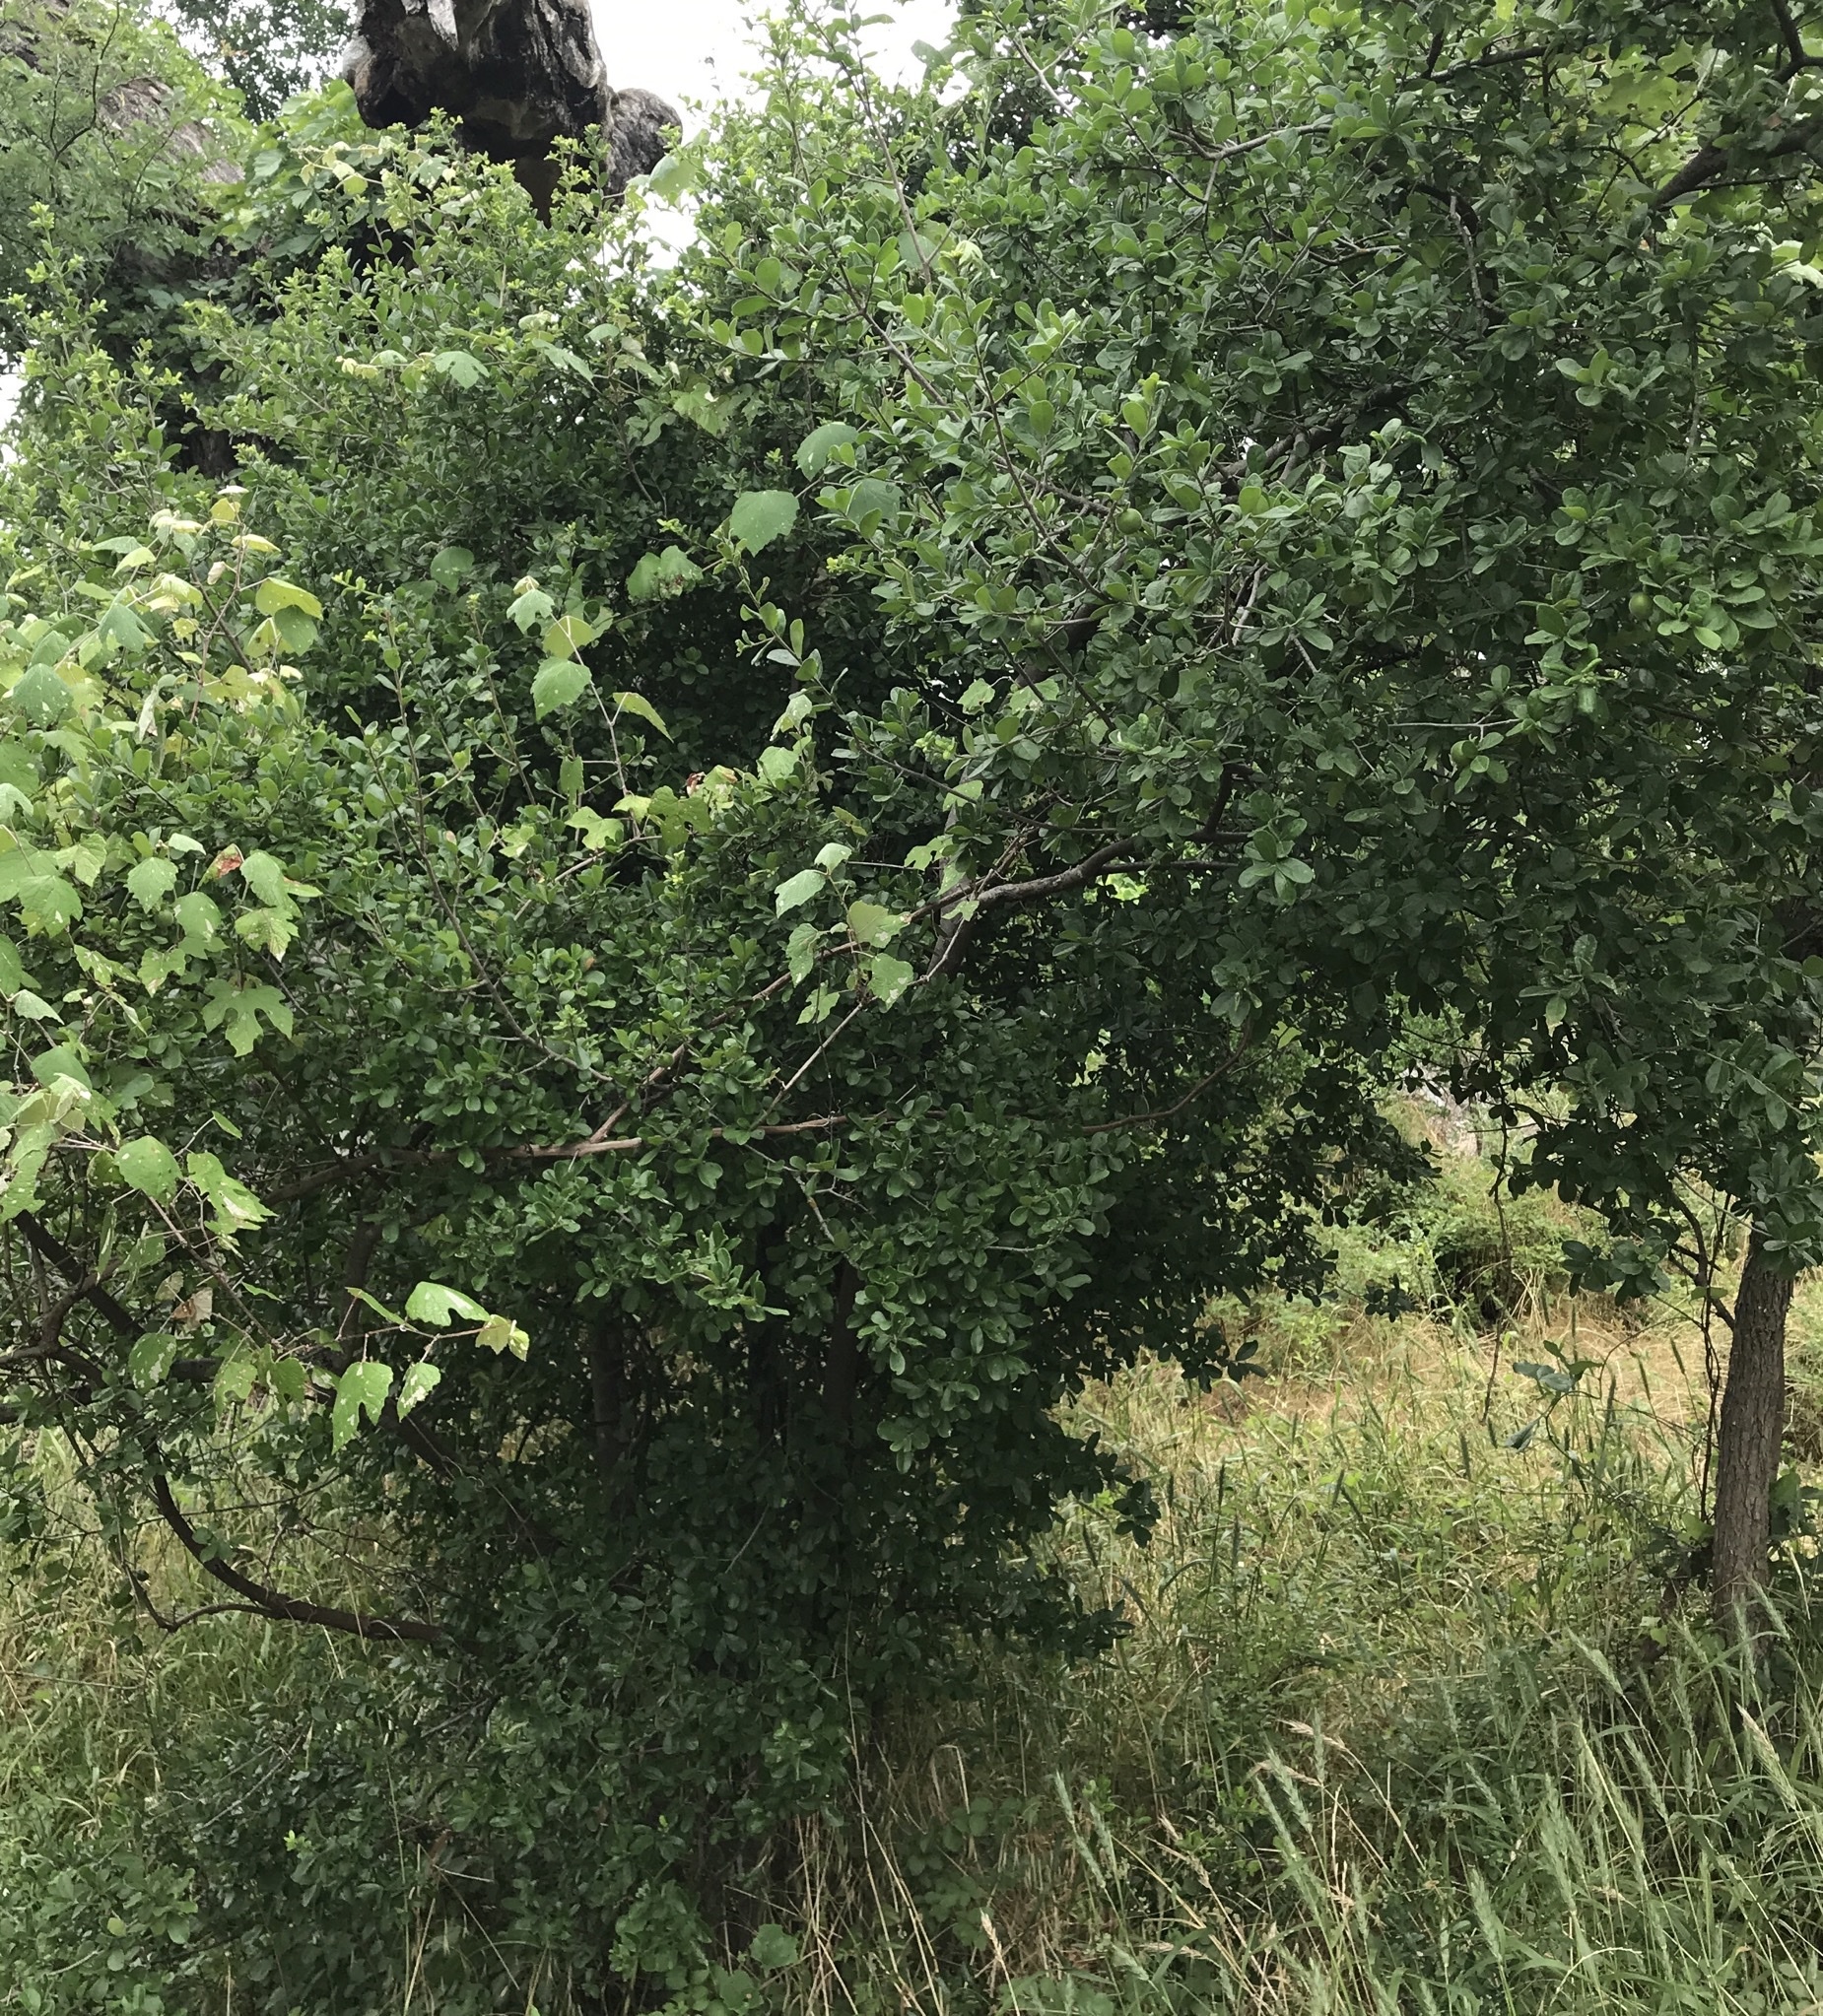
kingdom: Plantae
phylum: Tracheophyta
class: Magnoliopsida
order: Ericales
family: Ebenaceae
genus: Diospyros
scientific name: Diospyros texana
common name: Texas persimmon
